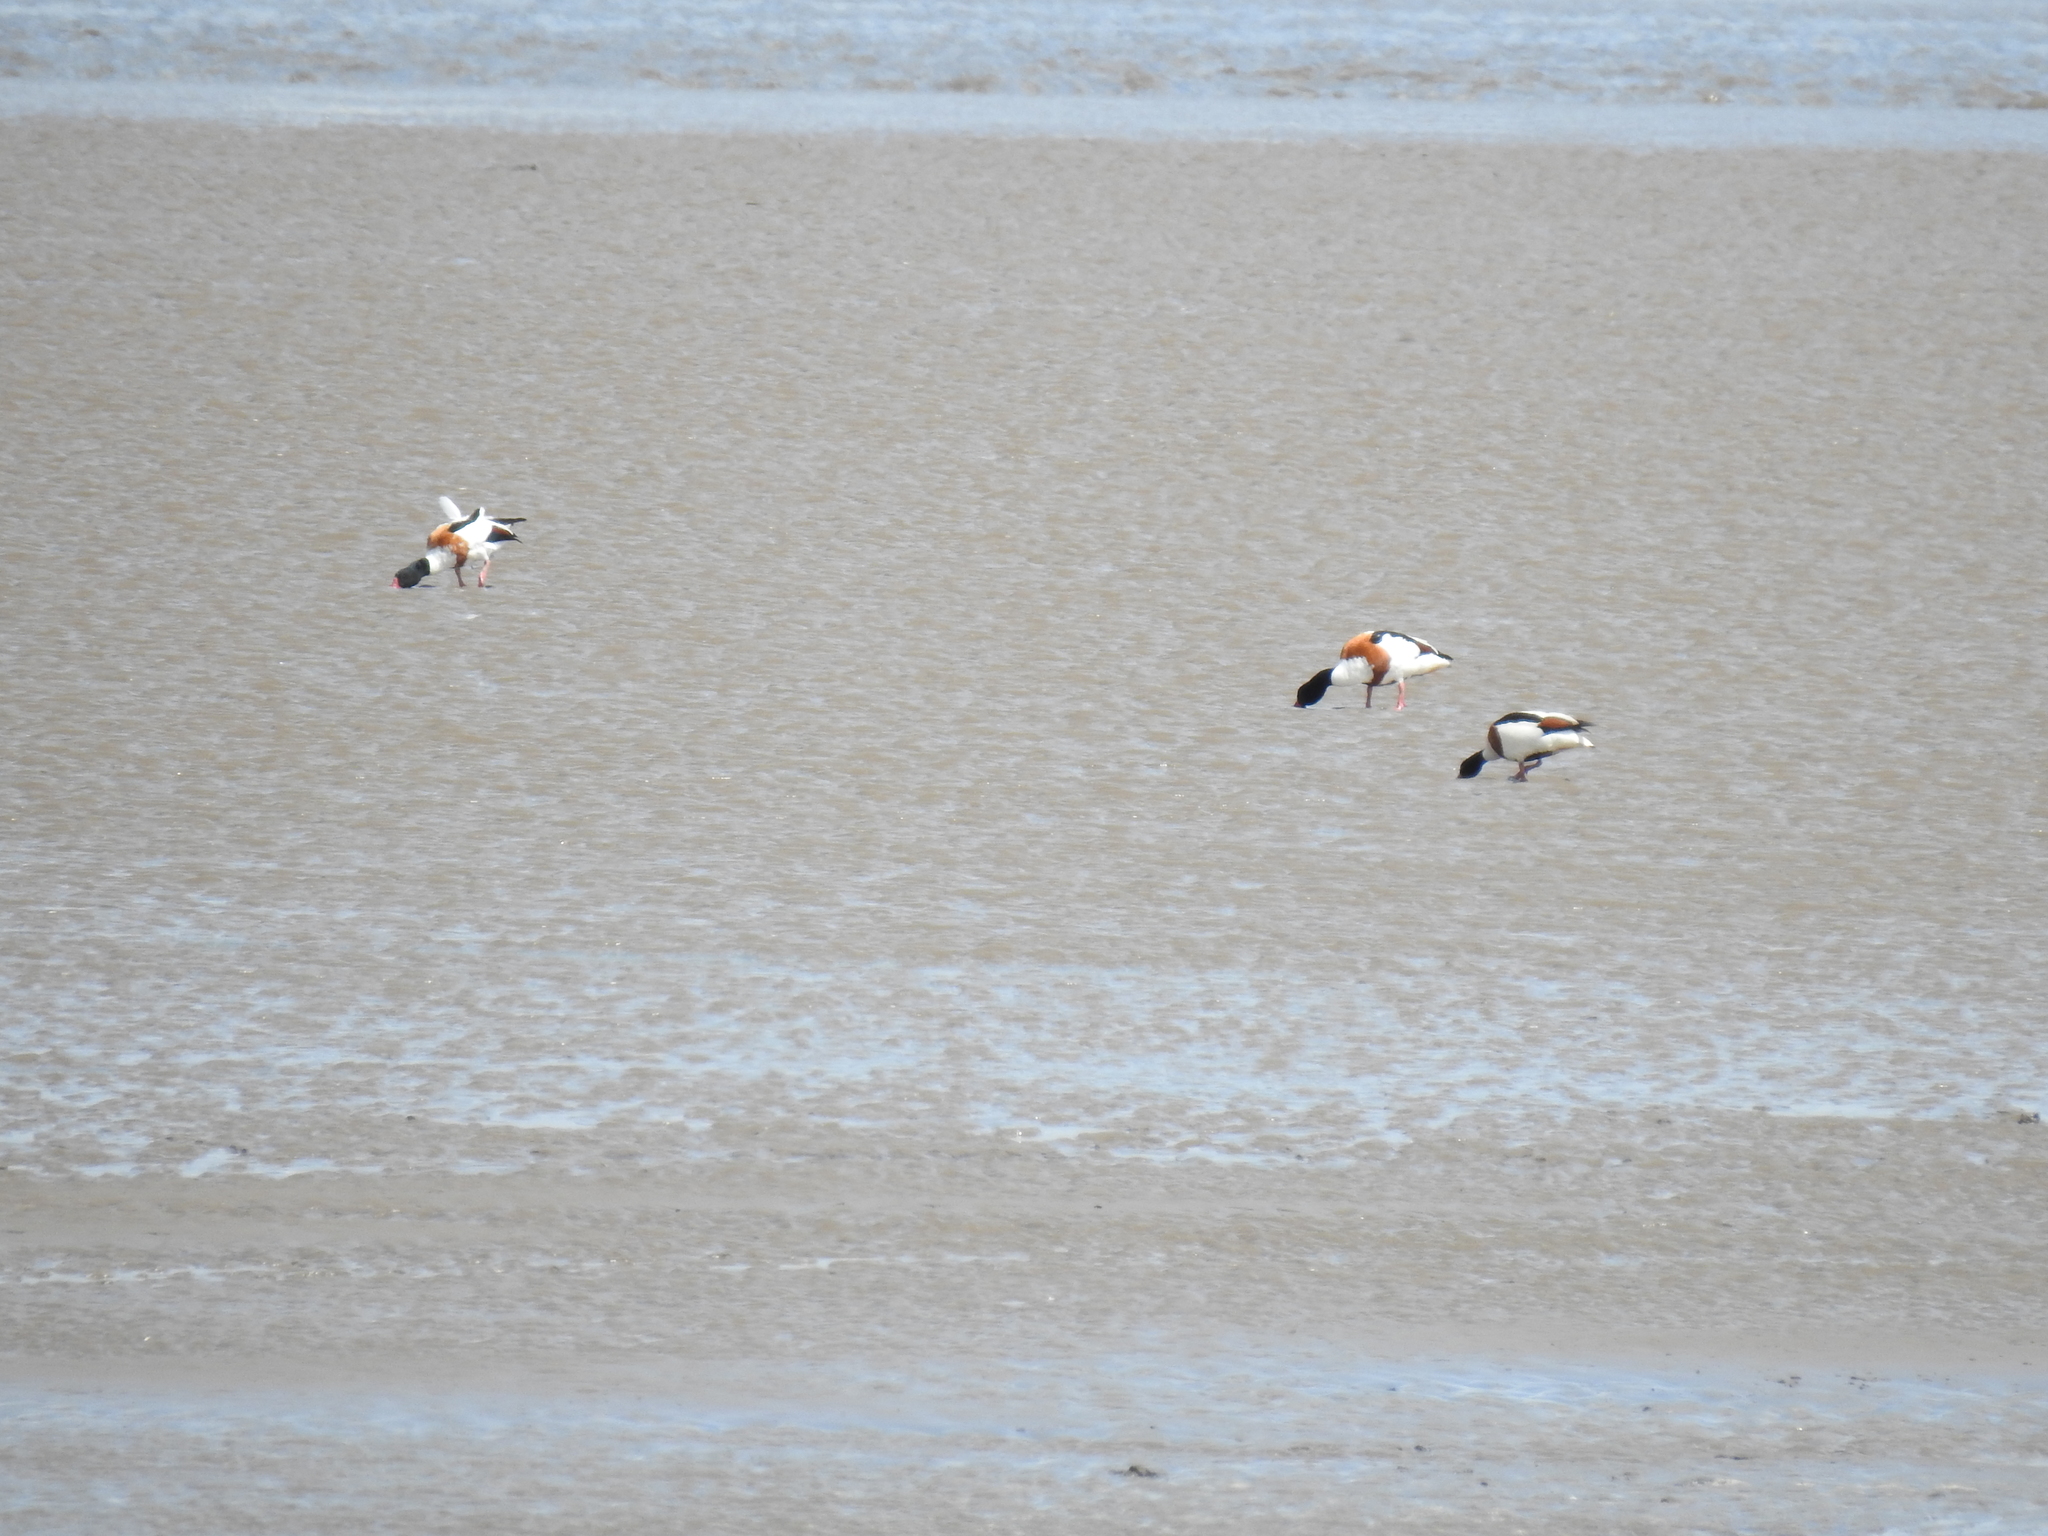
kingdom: Animalia
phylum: Chordata
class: Aves
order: Anseriformes
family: Anatidae
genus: Tadorna
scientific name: Tadorna tadorna
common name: Common shelduck
